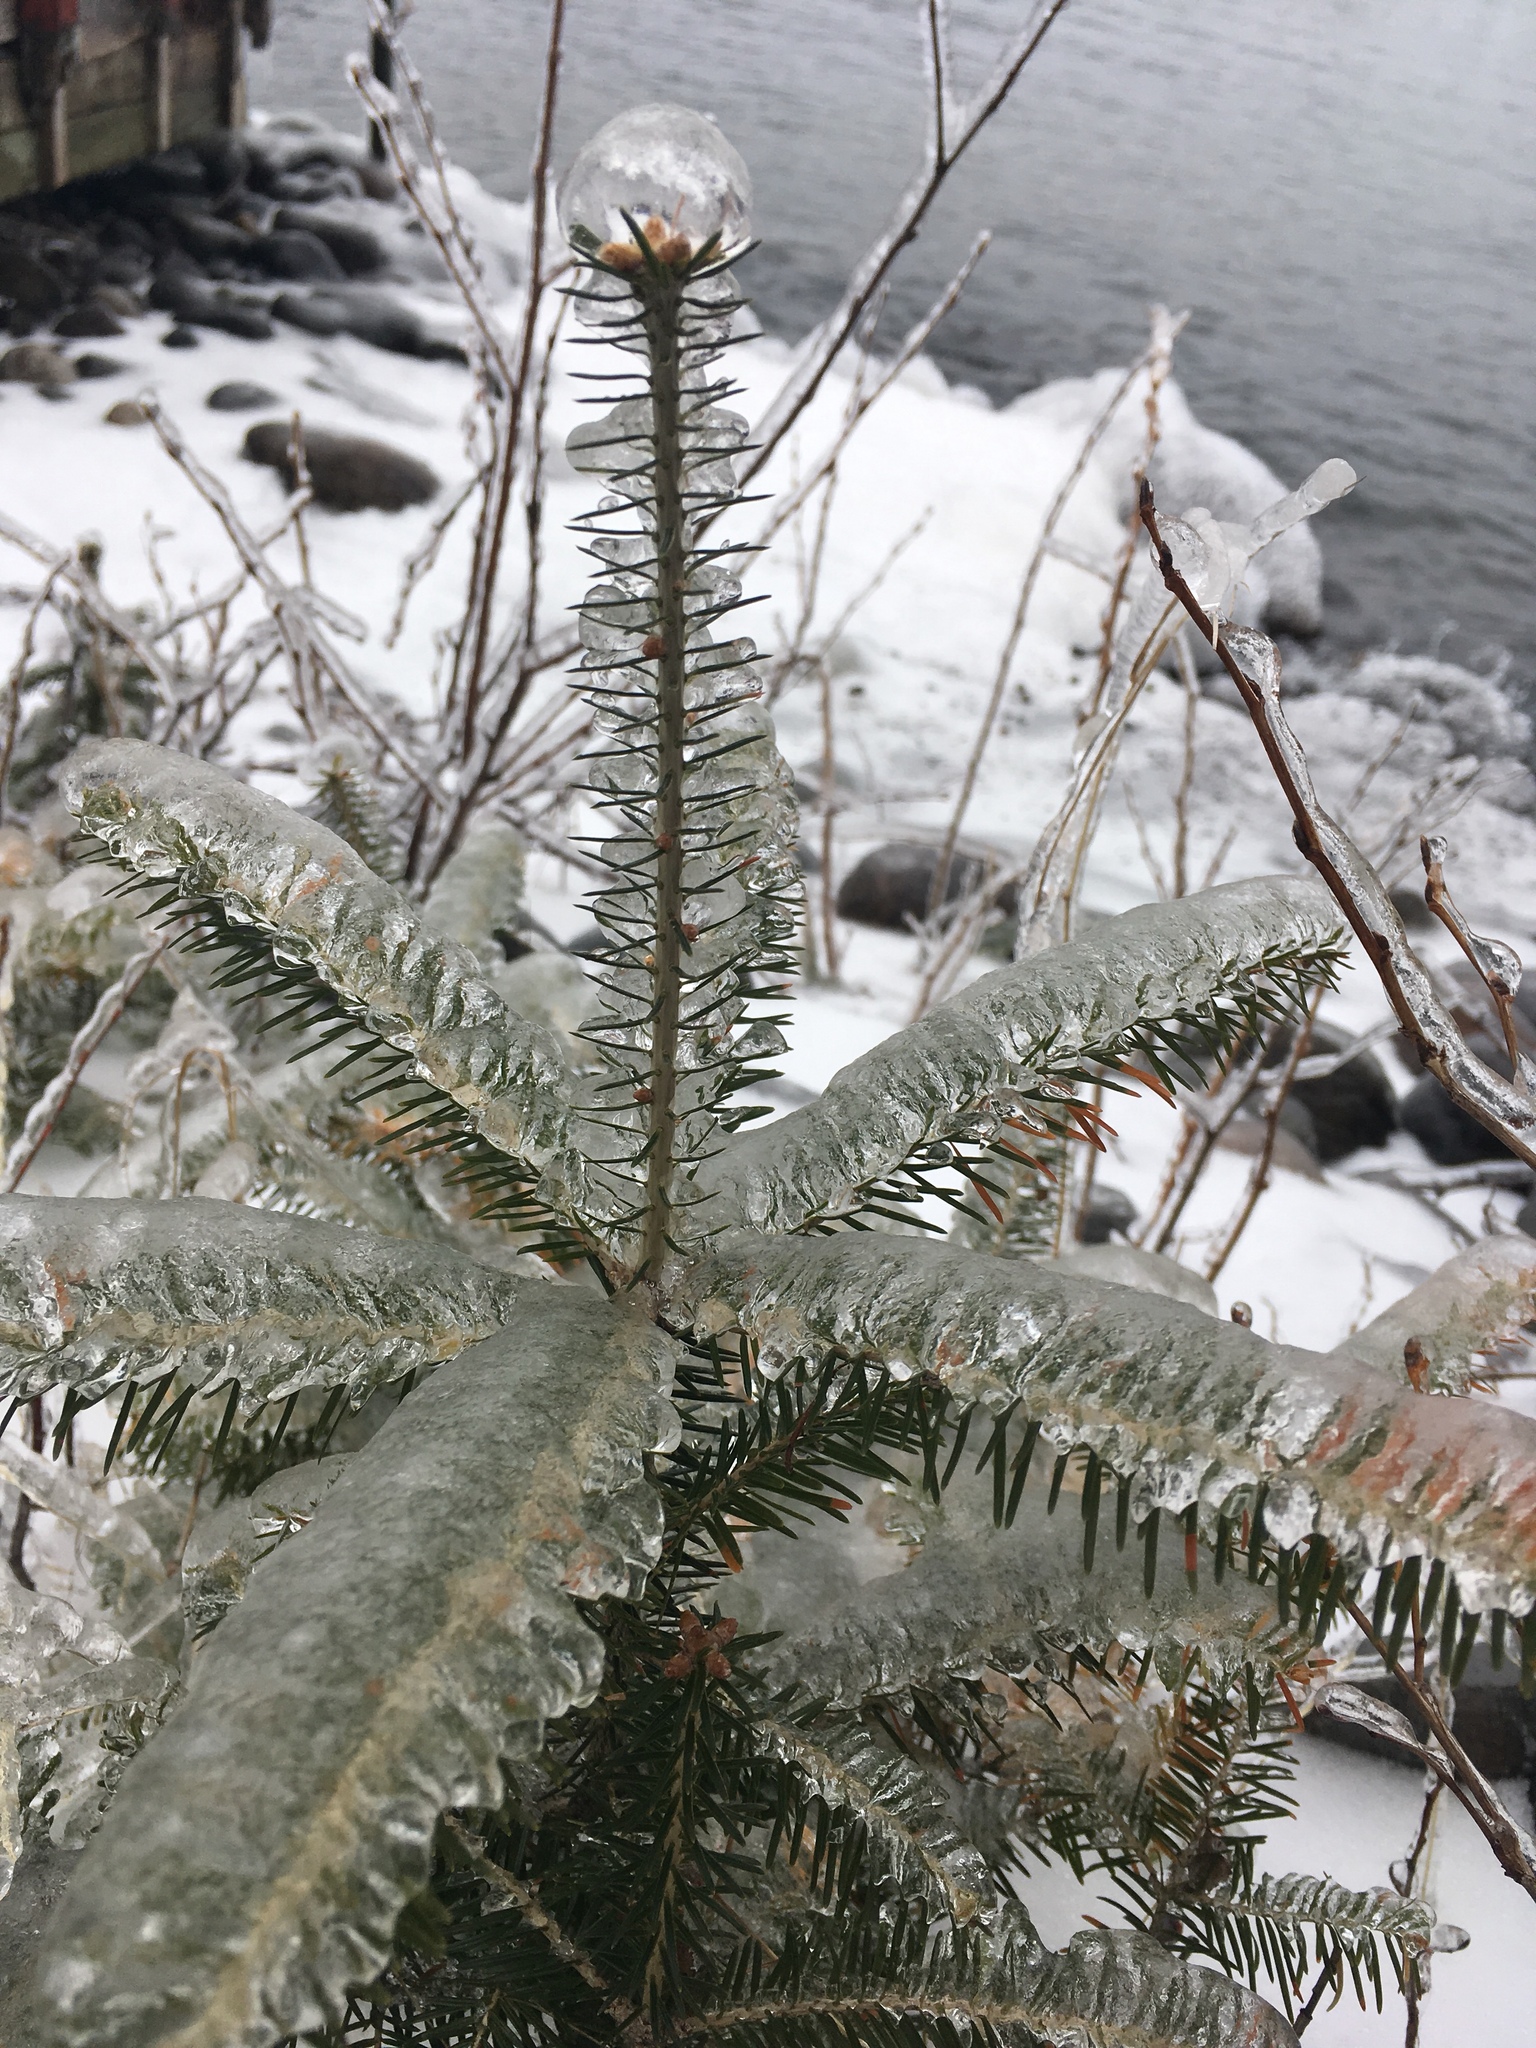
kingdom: Plantae
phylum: Tracheophyta
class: Pinopsida
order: Pinales
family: Pinaceae
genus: Abies
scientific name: Abies balsamea
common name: Balsam fir
